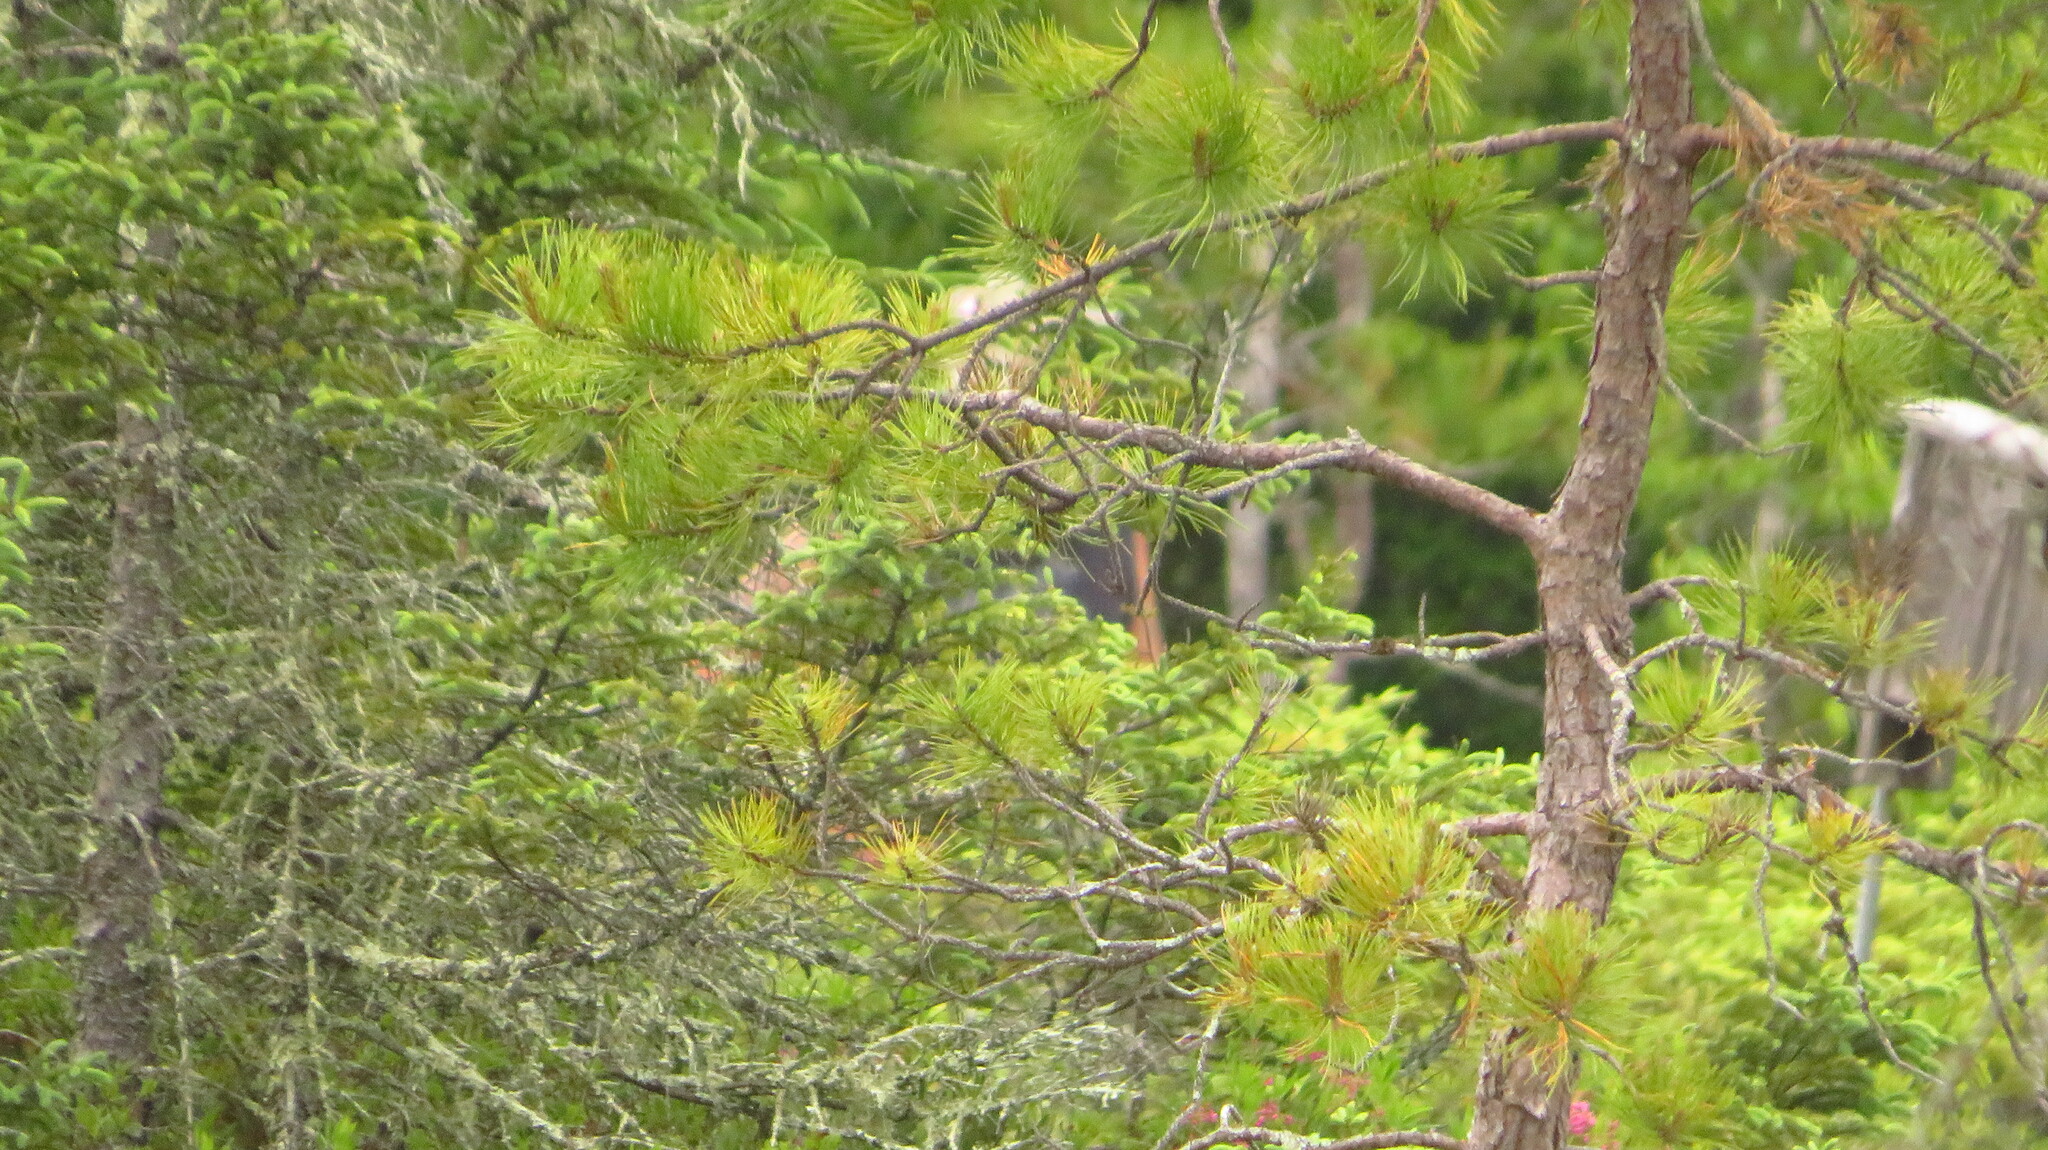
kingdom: Plantae
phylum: Tracheophyta
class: Pinopsida
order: Pinales
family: Pinaceae
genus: Pinus
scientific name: Pinus rigida
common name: Pitch pine
